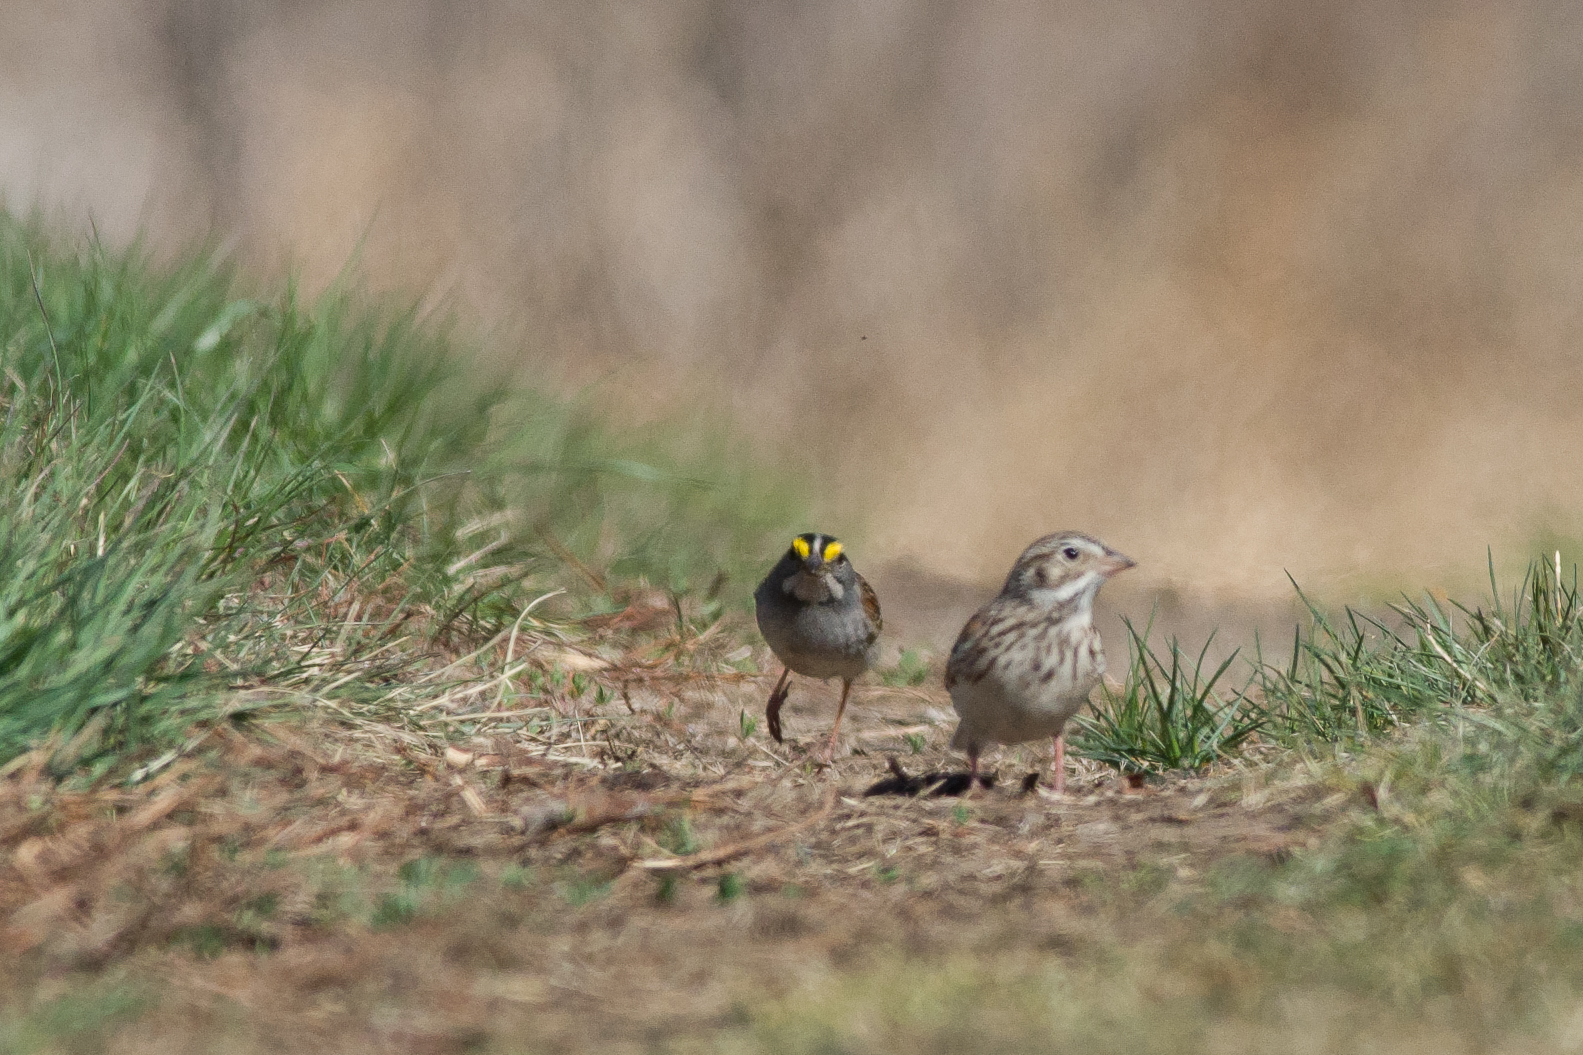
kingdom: Animalia
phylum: Chordata
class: Aves
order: Passeriformes
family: Passerellidae
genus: Zonotrichia
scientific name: Zonotrichia albicollis
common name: White-throated sparrow
